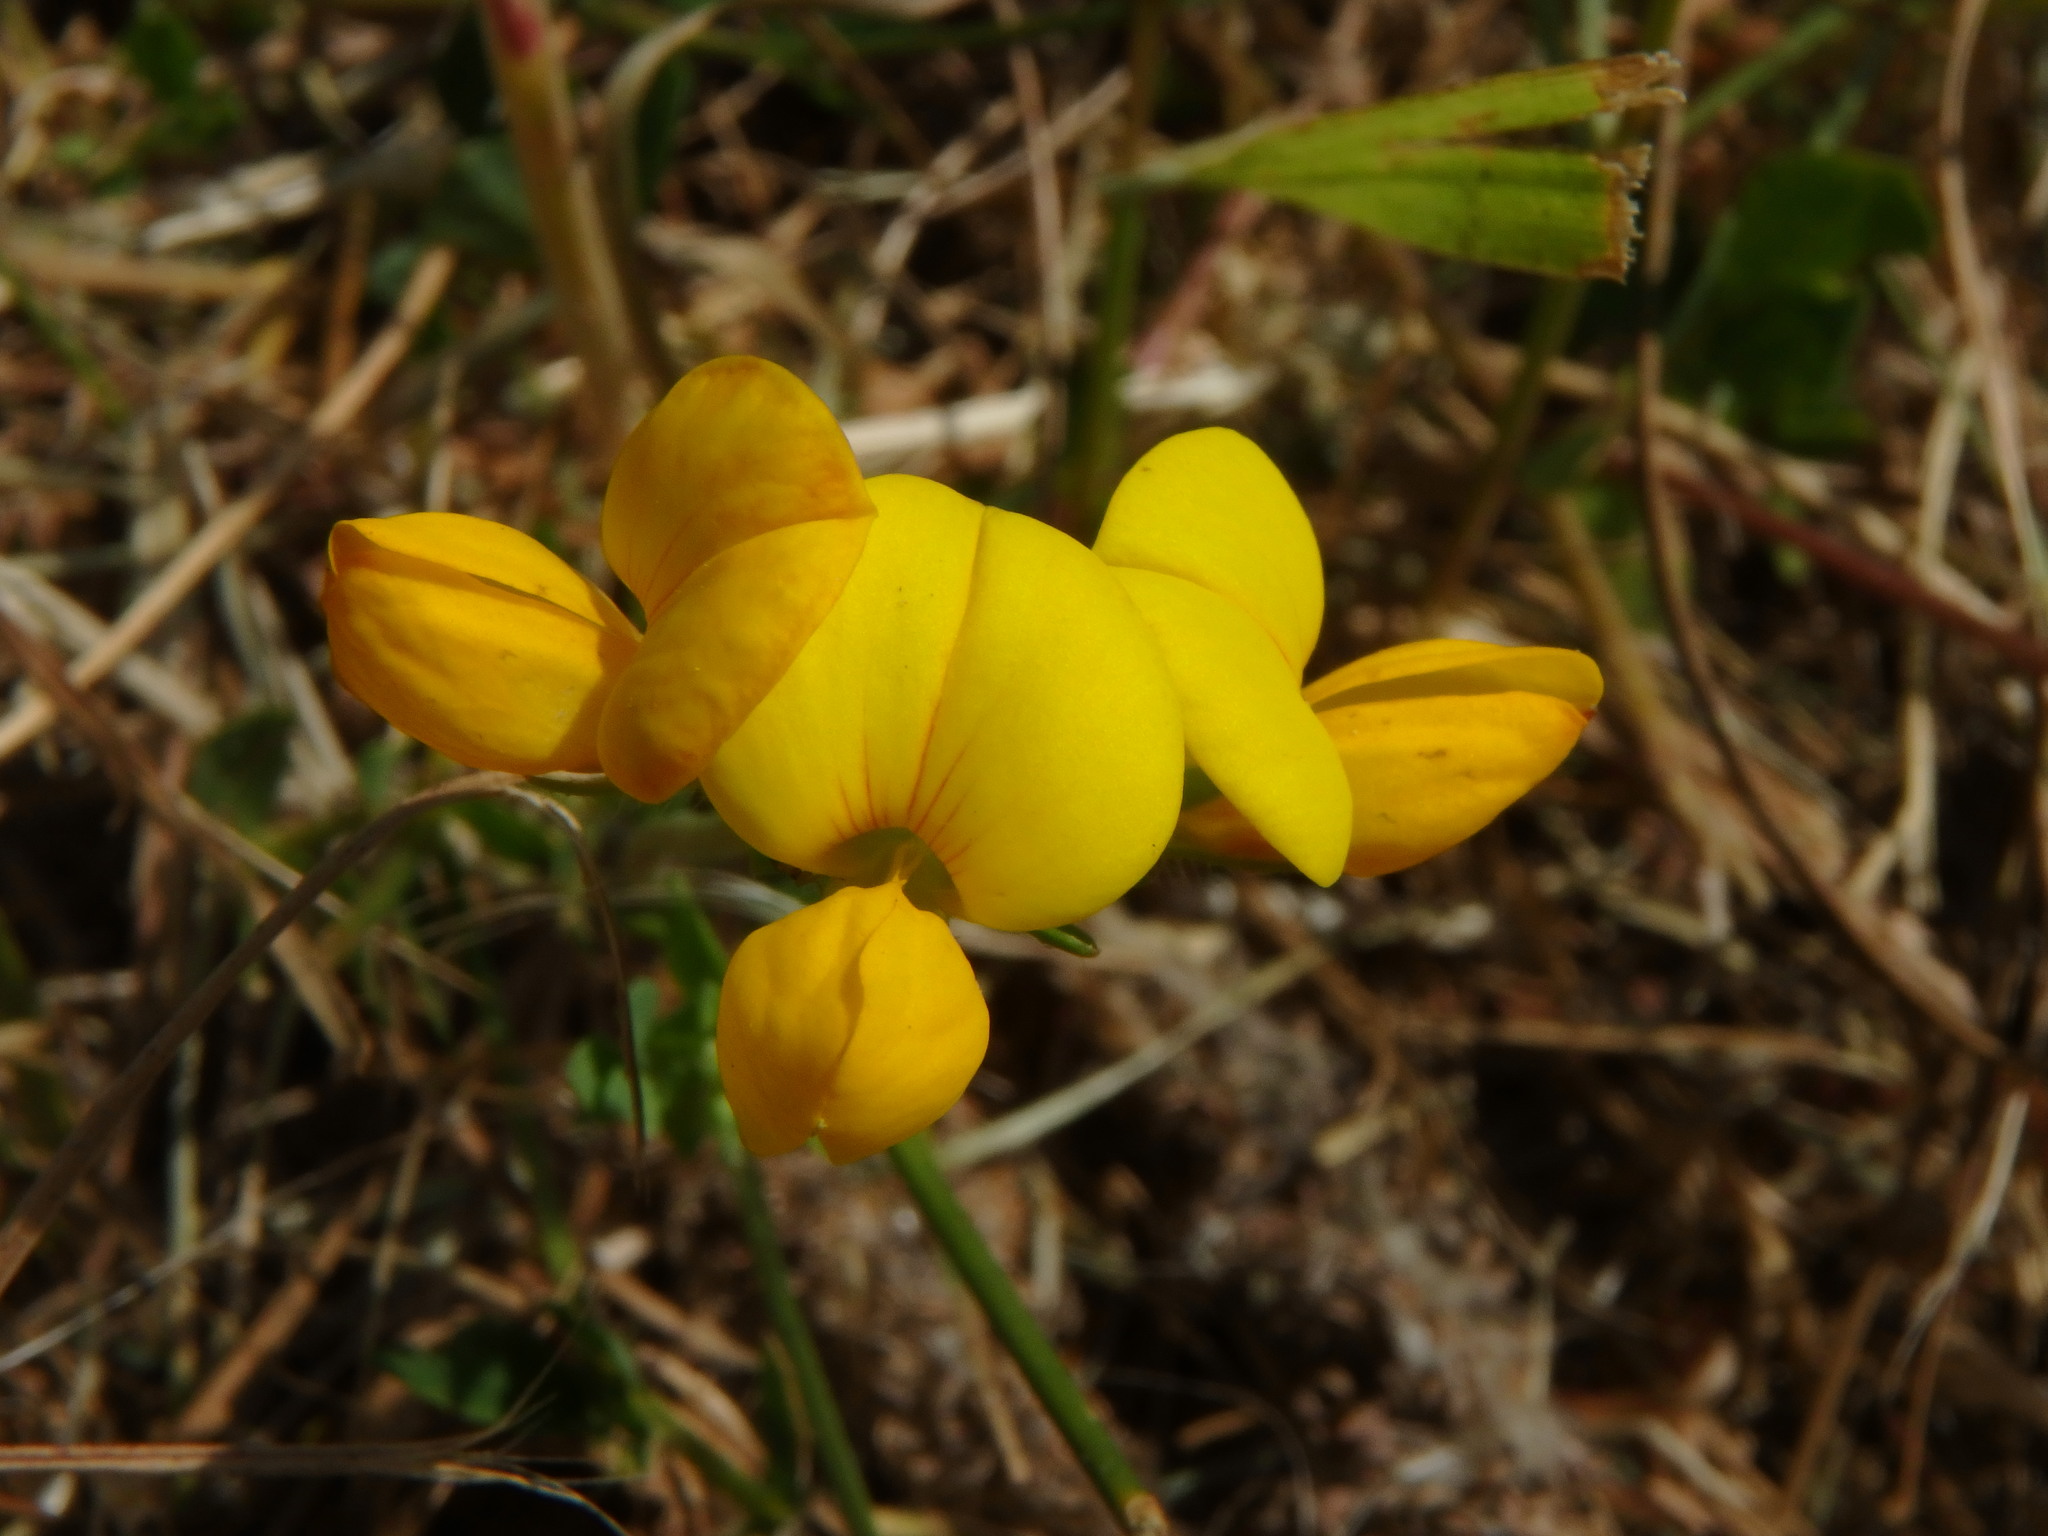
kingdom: Plantae
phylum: Tracheophyta
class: Magnoliopsida
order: Fabales
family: Fabaceae
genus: Lotus
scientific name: Lotus corniculatus
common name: Common bird's-foot-trefoil
